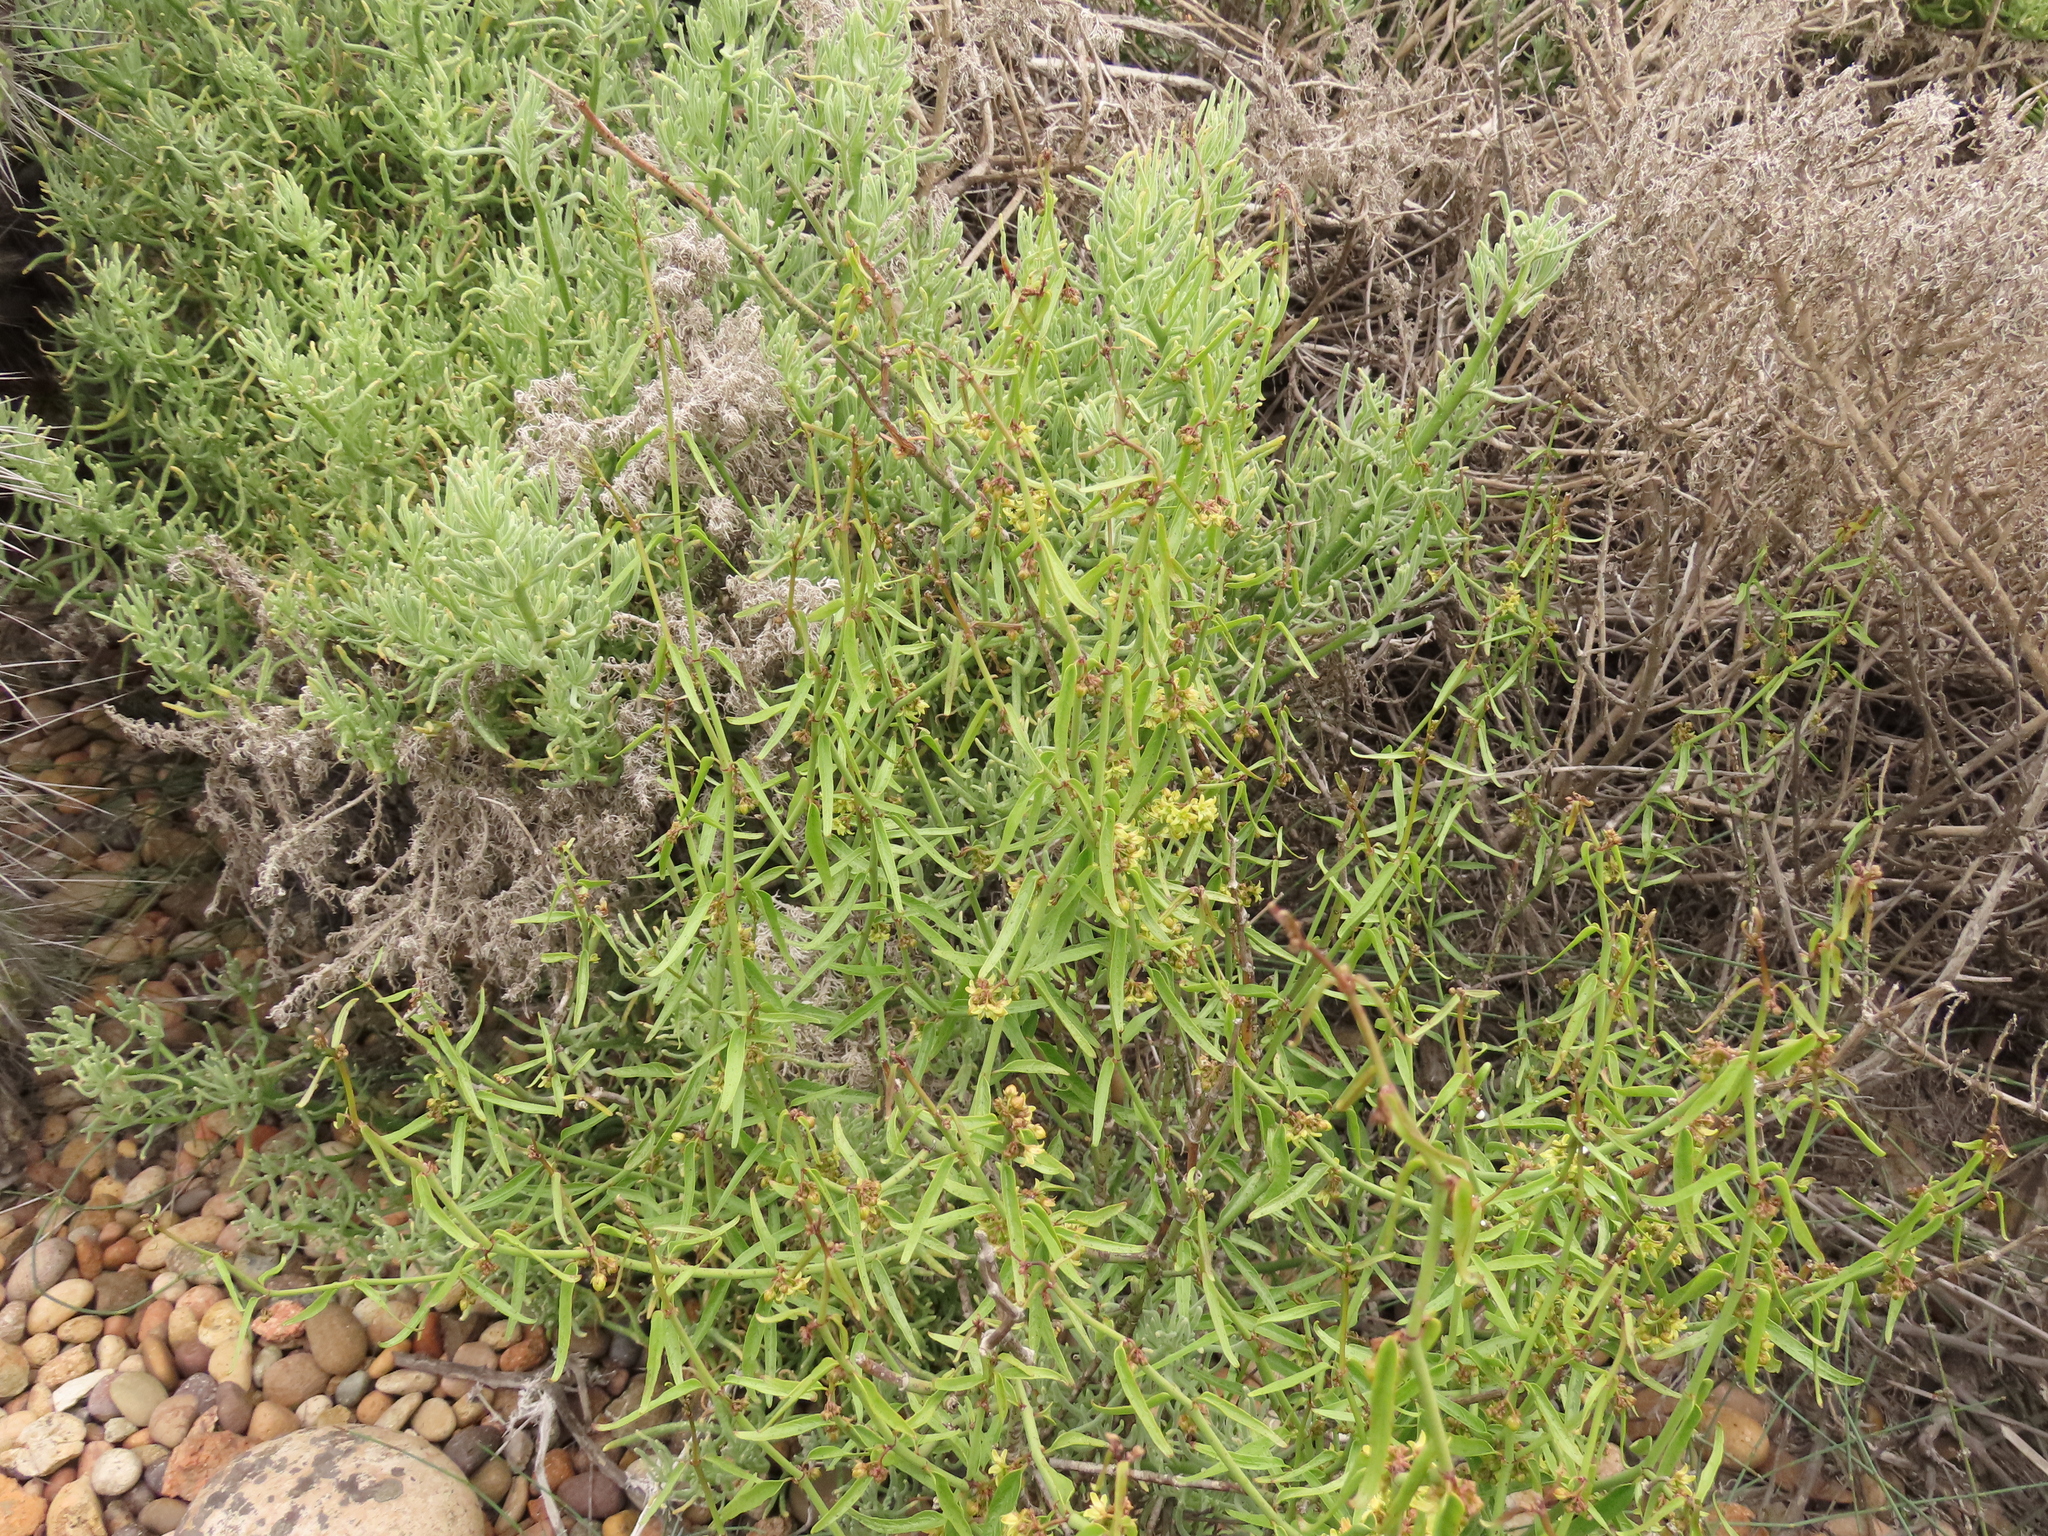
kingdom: Plantae
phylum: Tracheophyta
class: Magnoliopsida
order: Gentianales
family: Apocynaceae
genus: Diplolepis
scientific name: Diplolepis viridis
